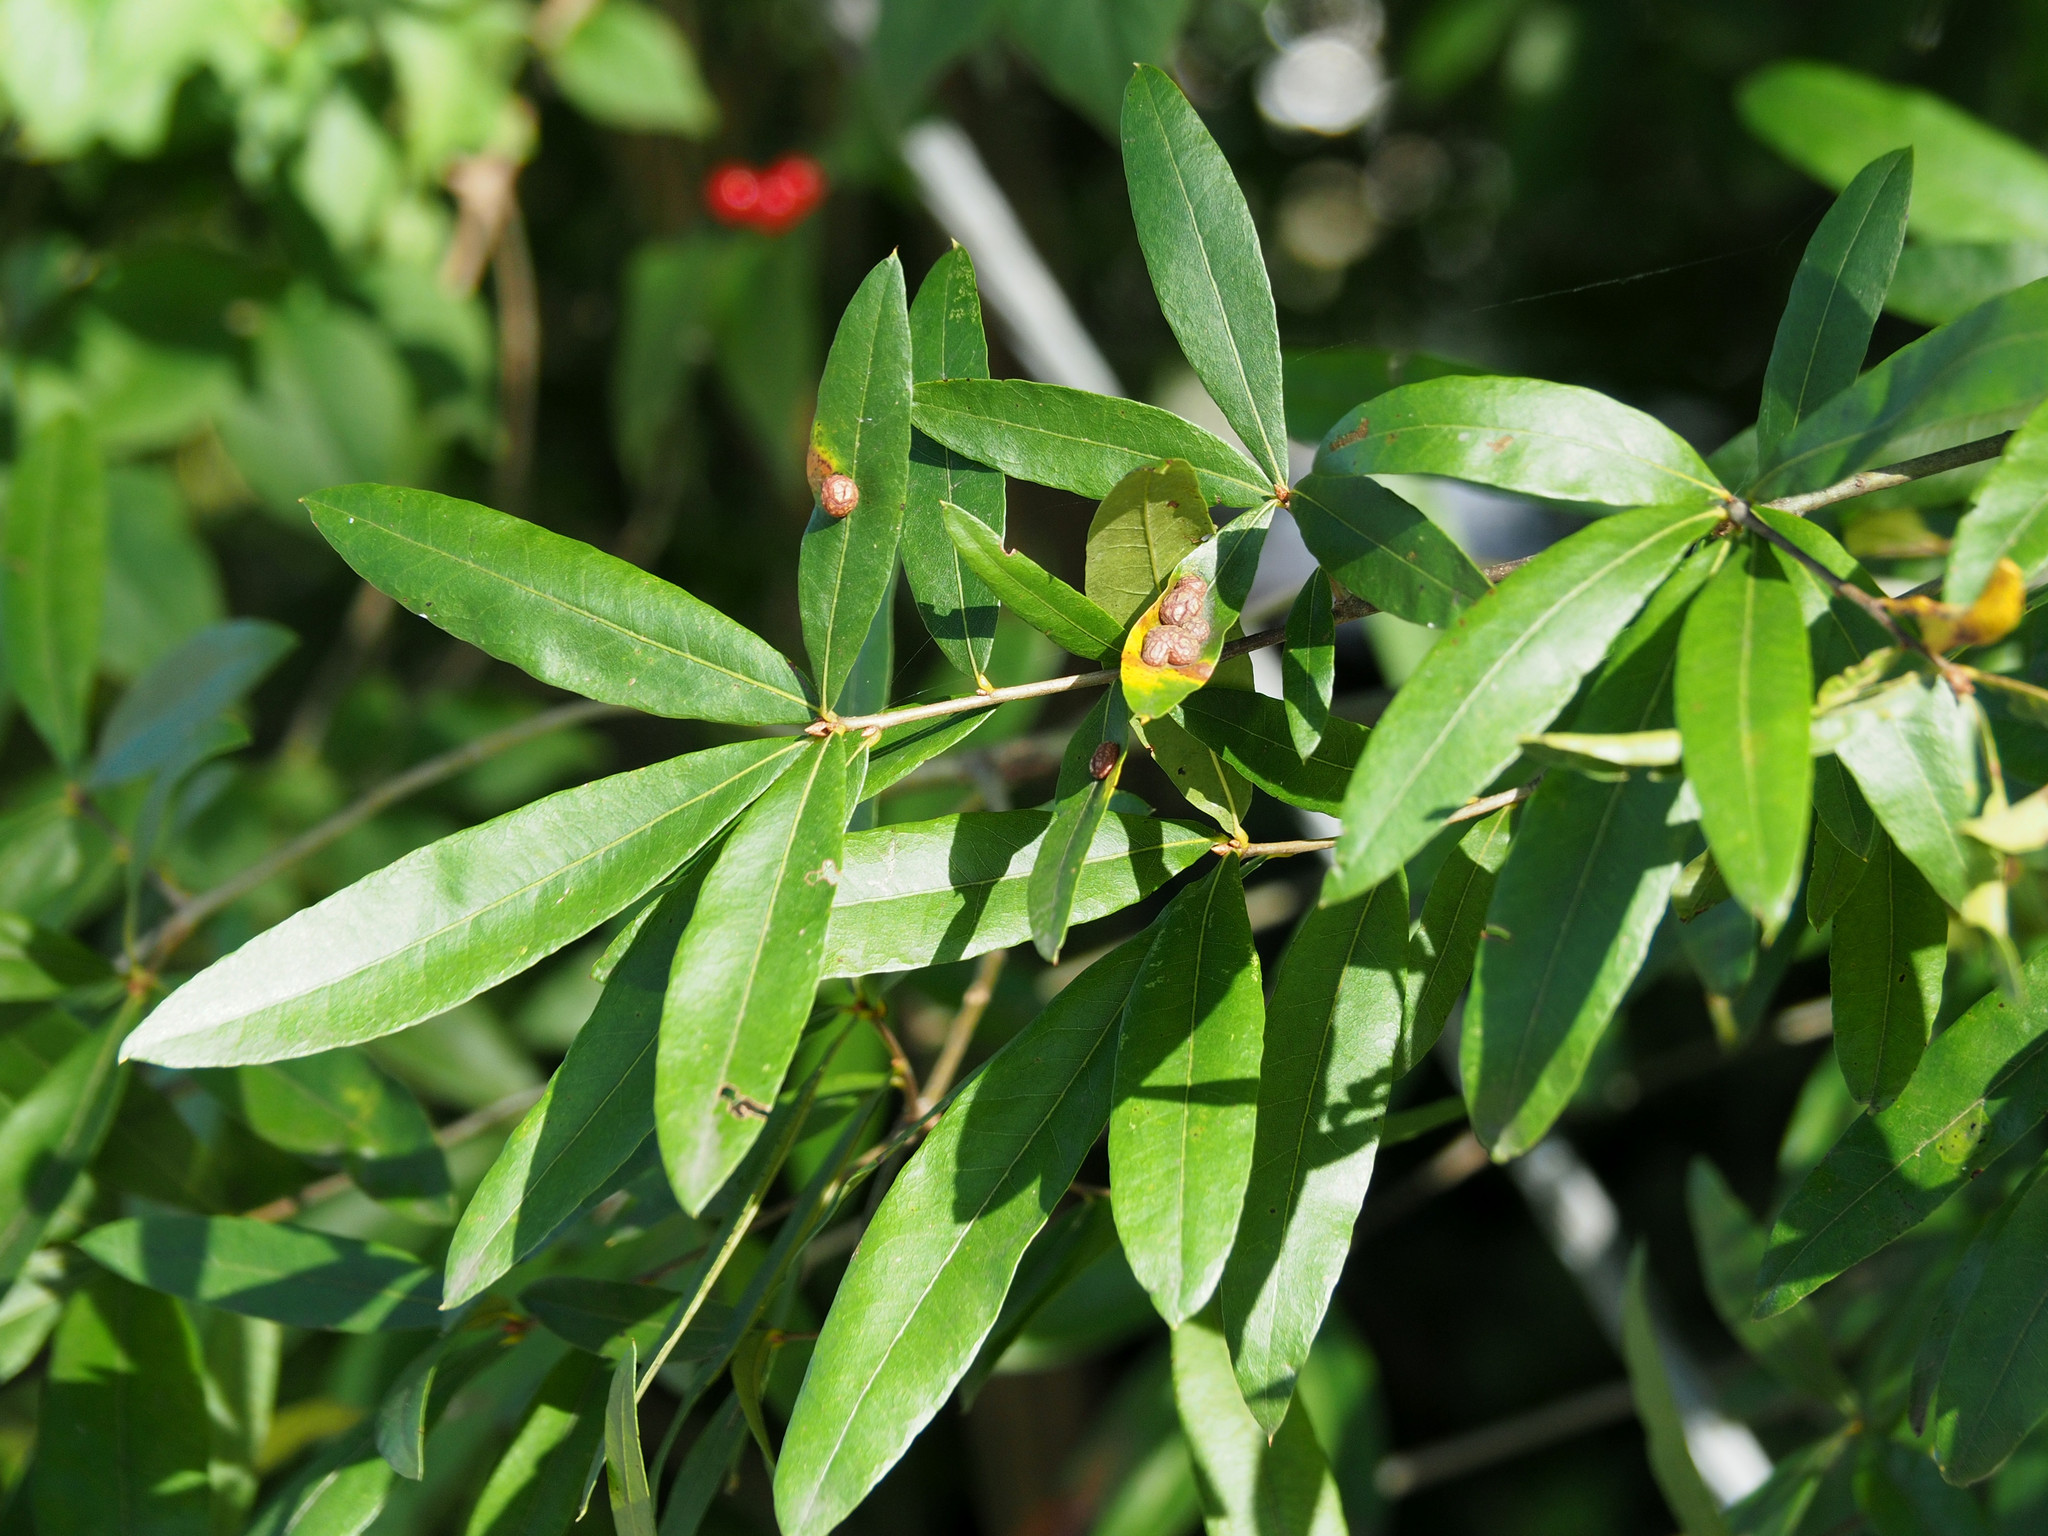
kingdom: Plantae
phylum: Tracheophyta
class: Magnoliopsida
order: Fagales
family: Fagaceae
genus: Quercus
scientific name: Quercus phellos
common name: Willow oak
